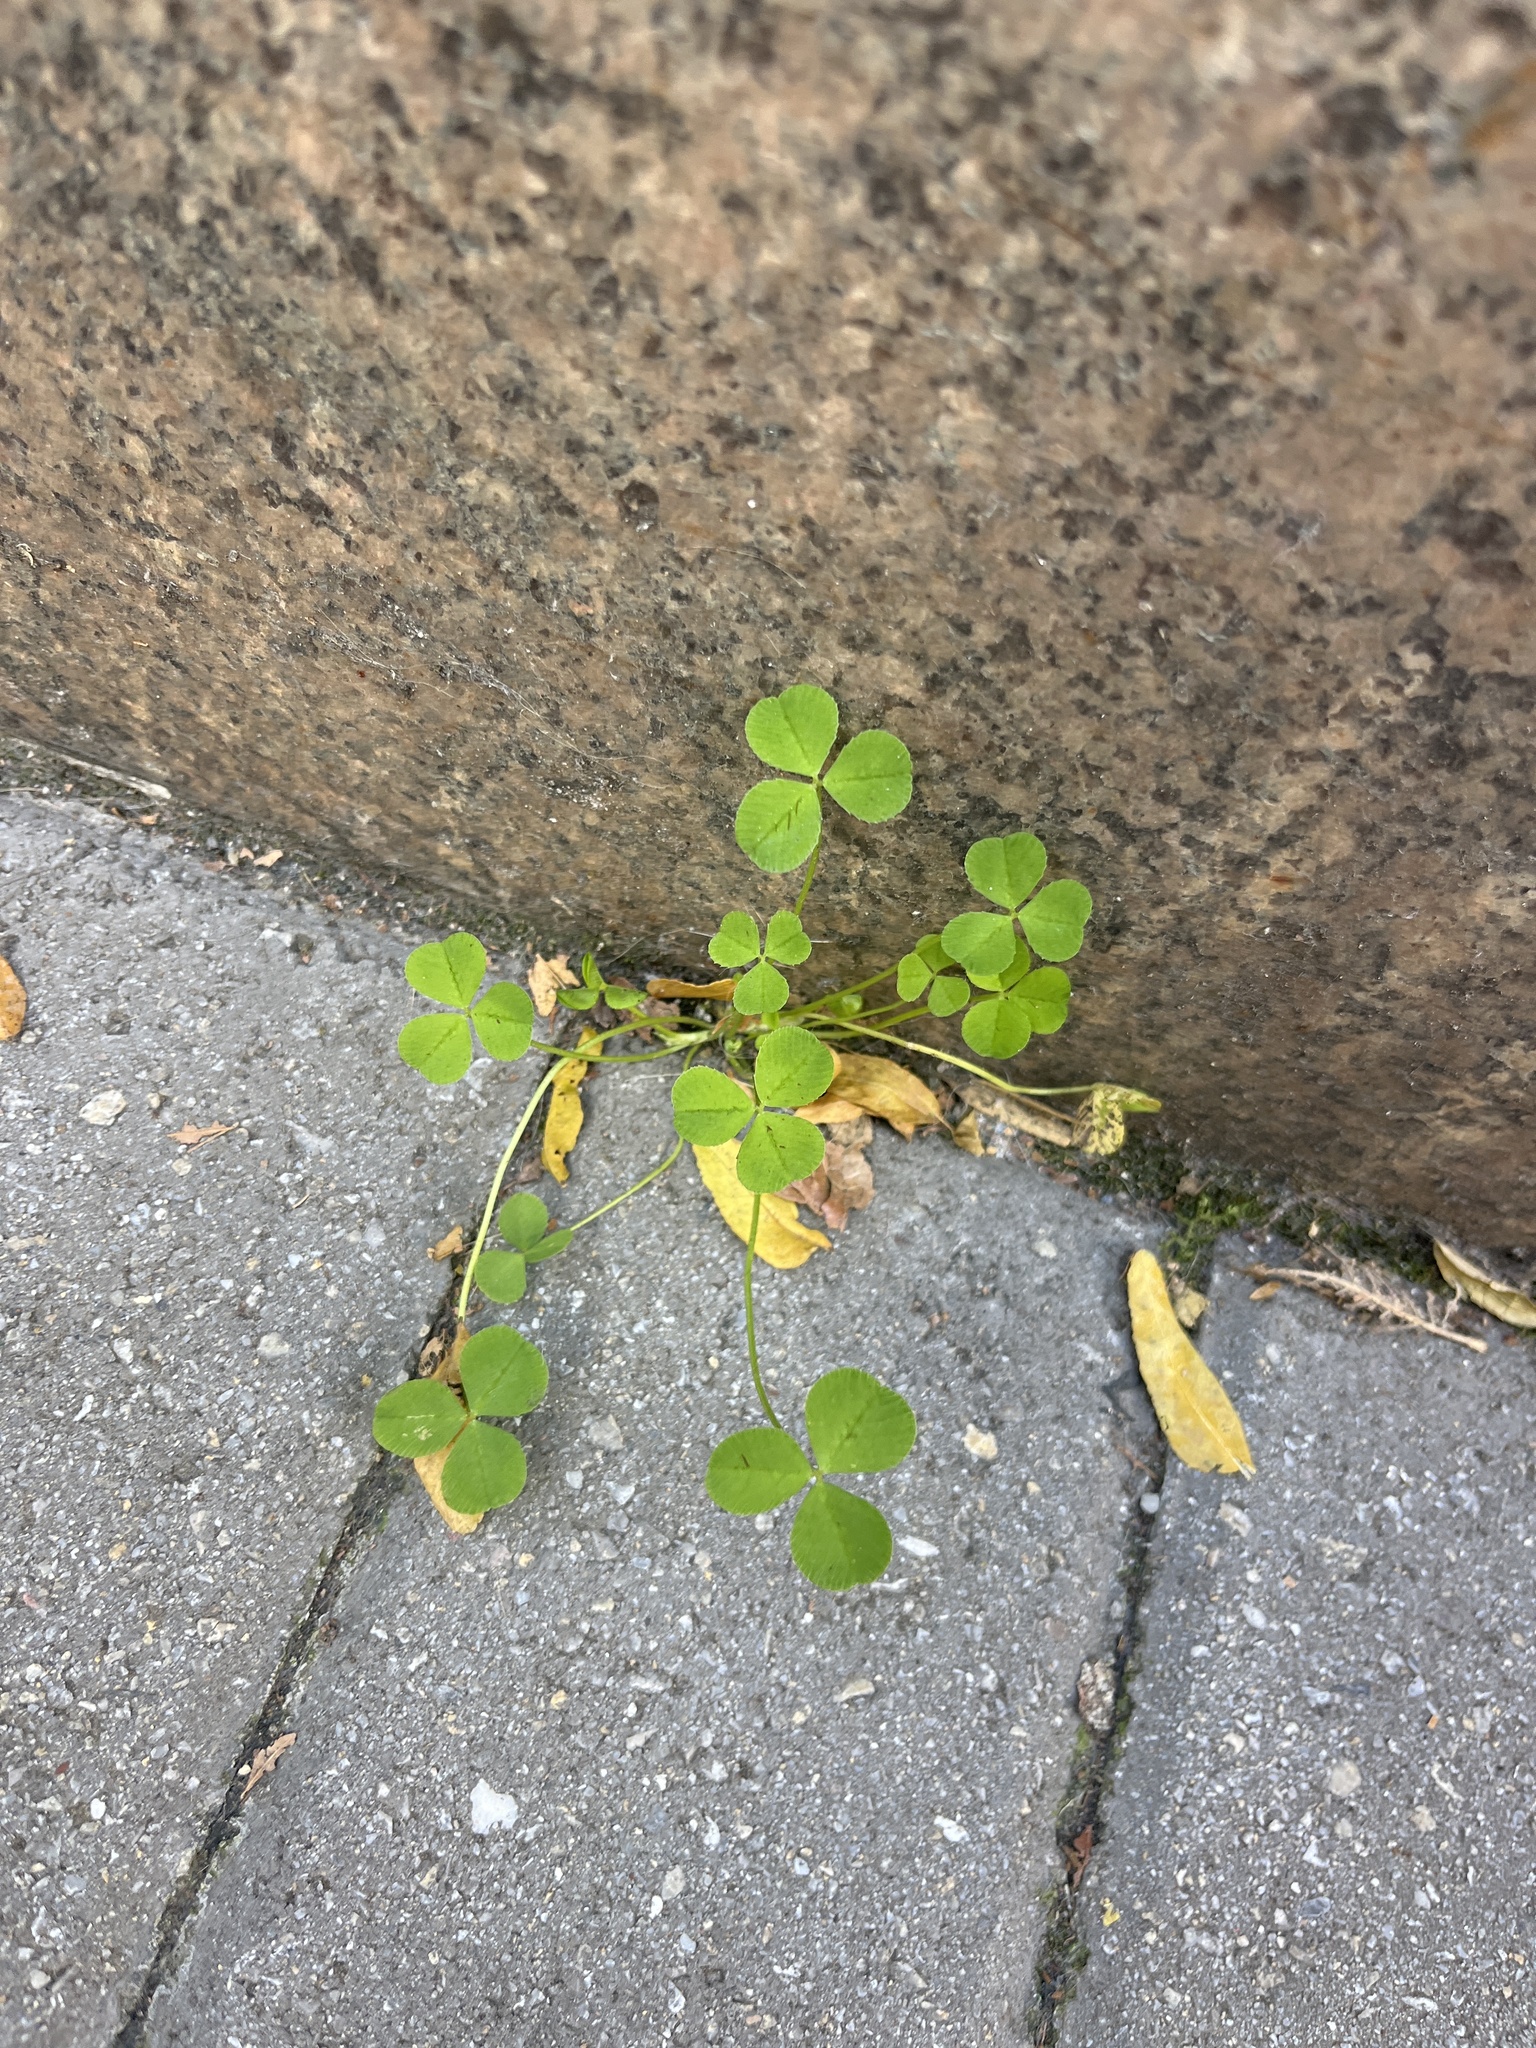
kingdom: Plantae
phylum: Tracheophyta
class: Magnoliopsida
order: Fabales
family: Fabaceae
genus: Trifolium
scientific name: Trifolium repens
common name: White clover
